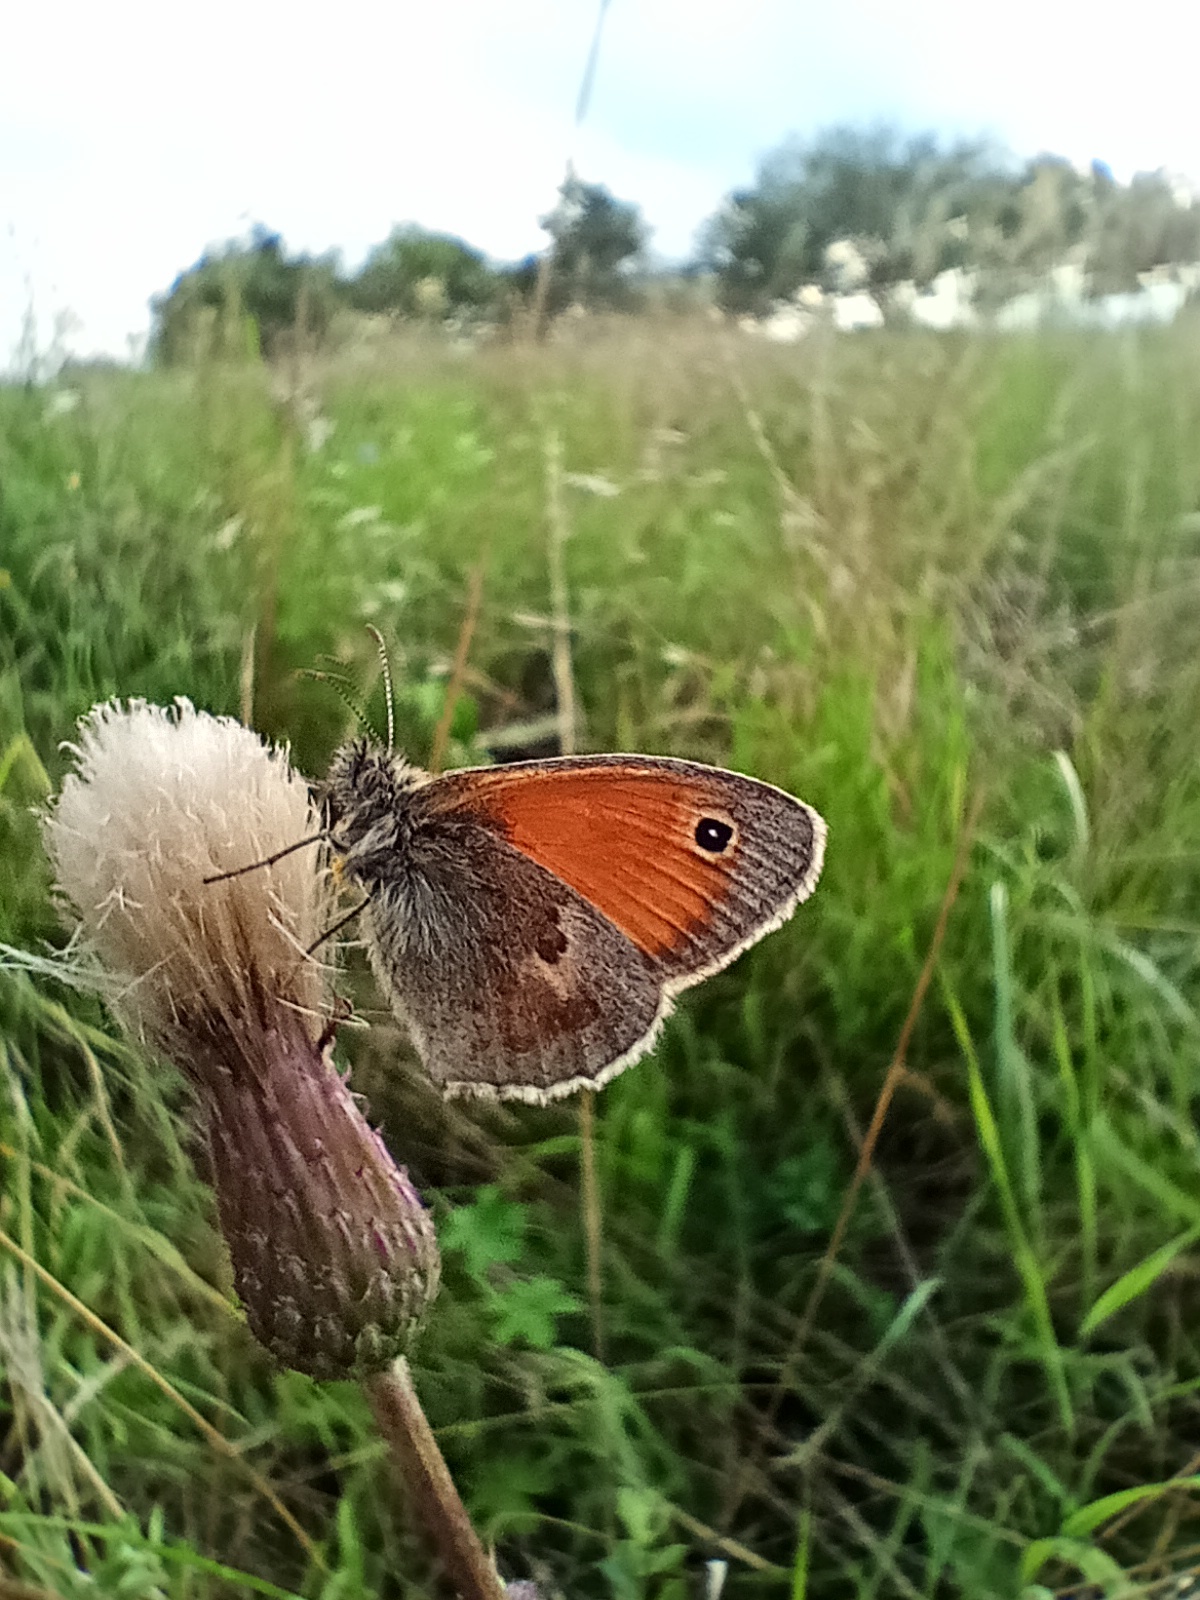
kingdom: Animalia
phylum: Arthropoda
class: Insecta
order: Lepidoptera
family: Nymphalidae
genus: Coenonympha
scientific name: Coenonympha pamphilus
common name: Small heath
